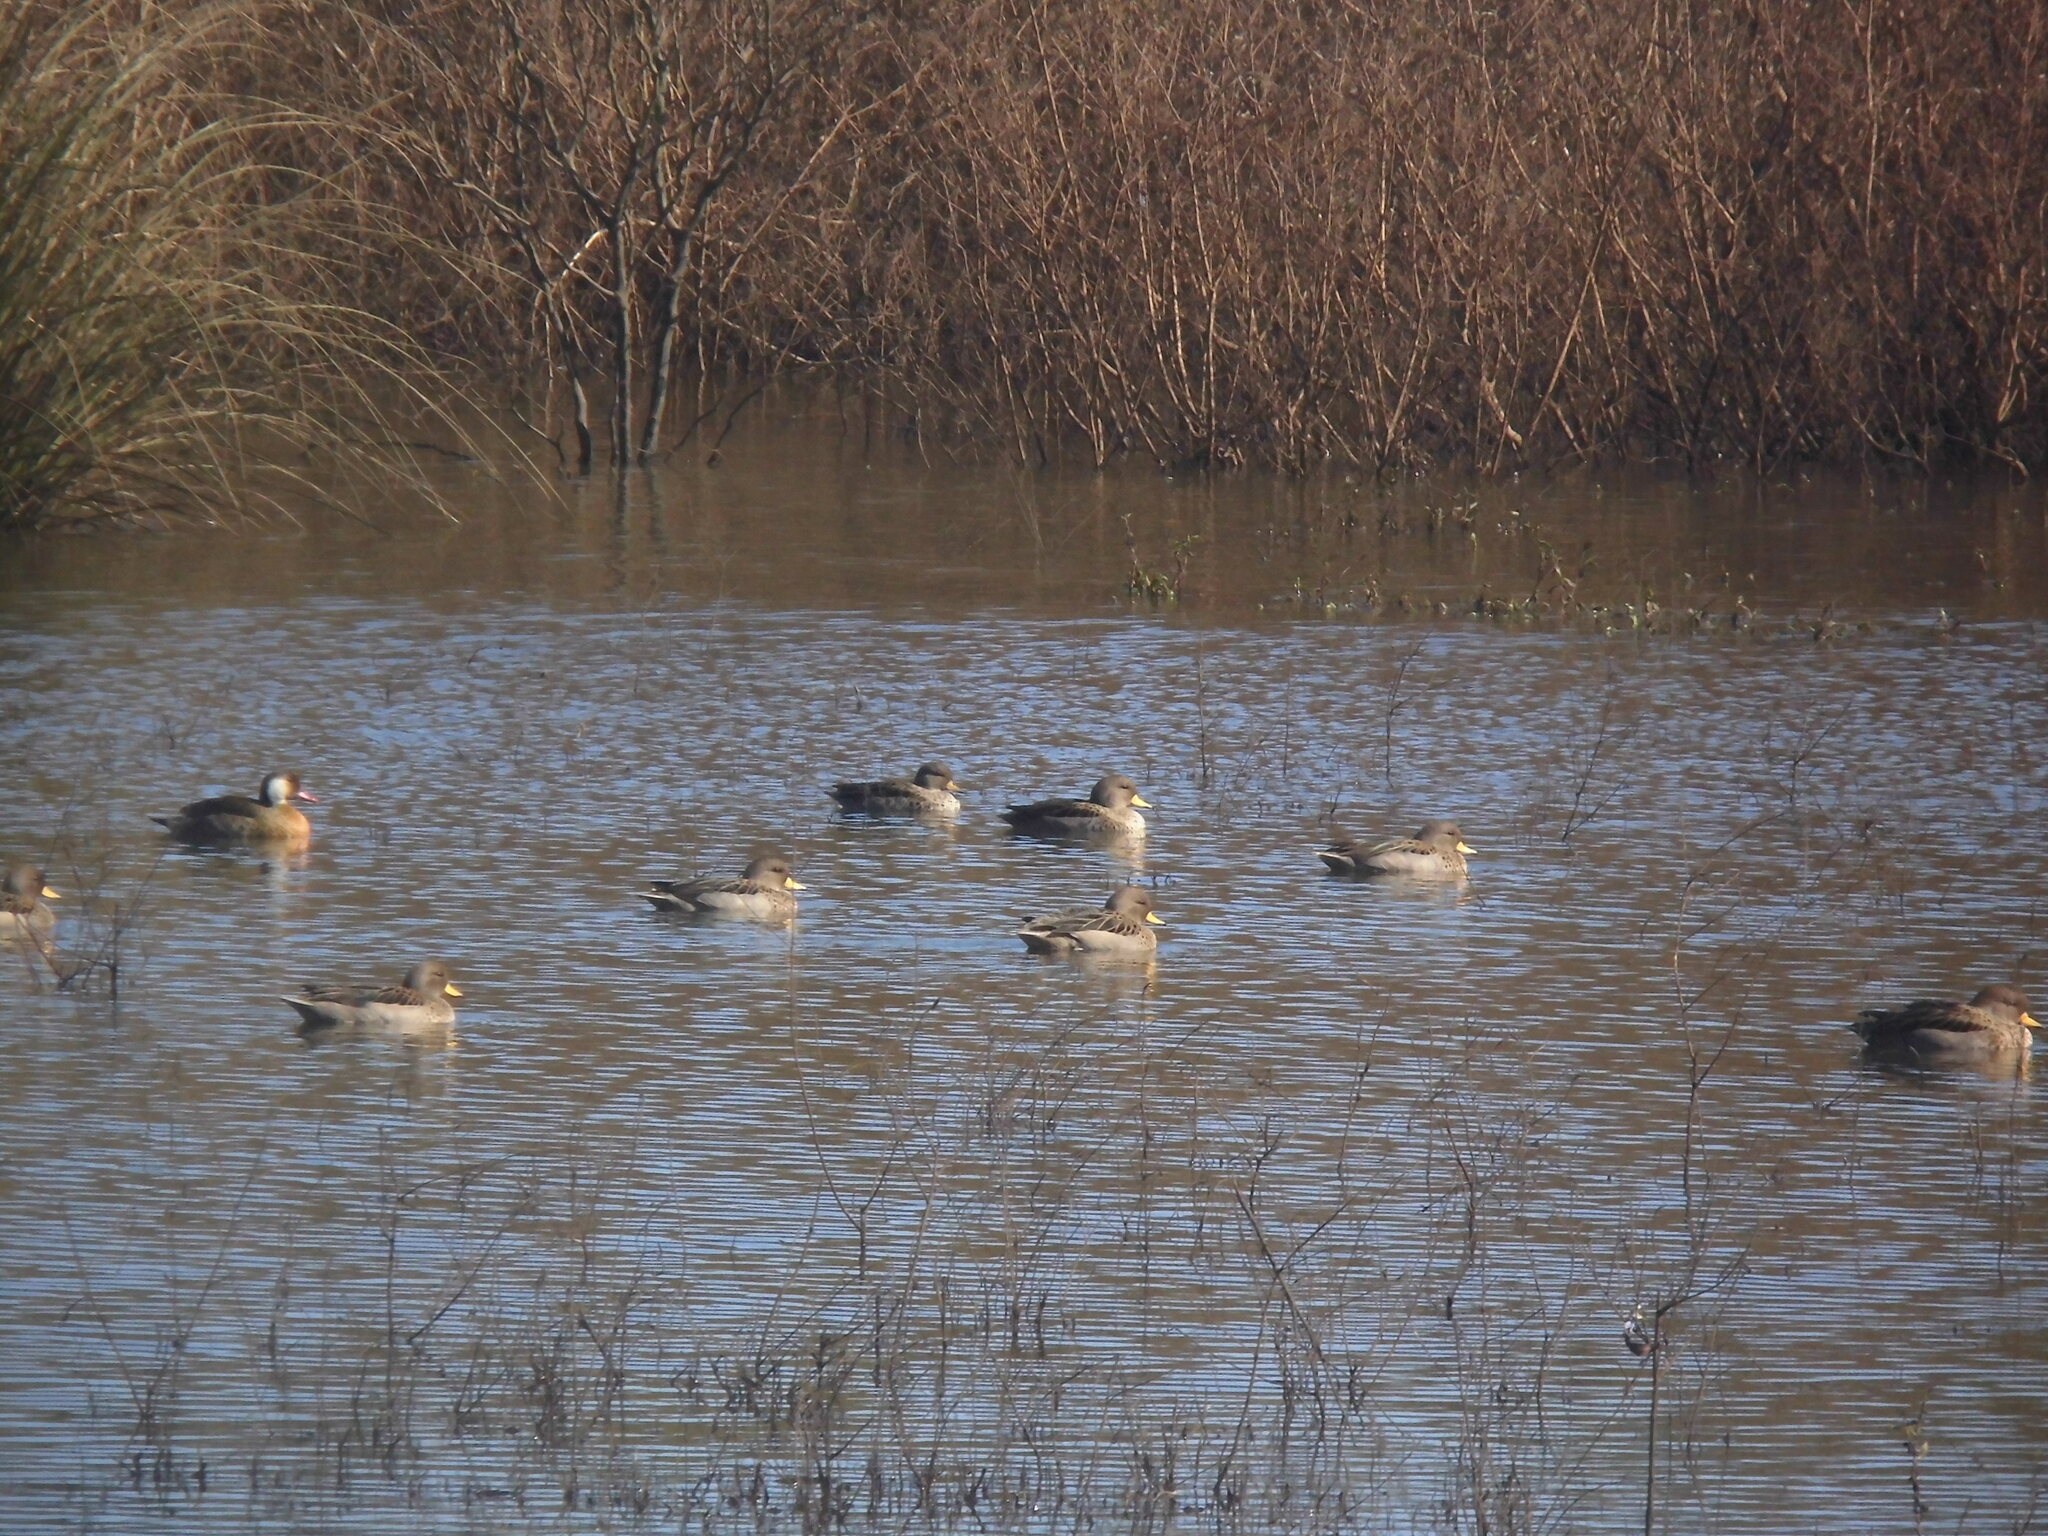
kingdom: Animalia
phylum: Chordata
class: Aves
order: Anseriformes
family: Anatidae
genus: Anas
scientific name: Anas flavirostris
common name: Yellow-billed teal
